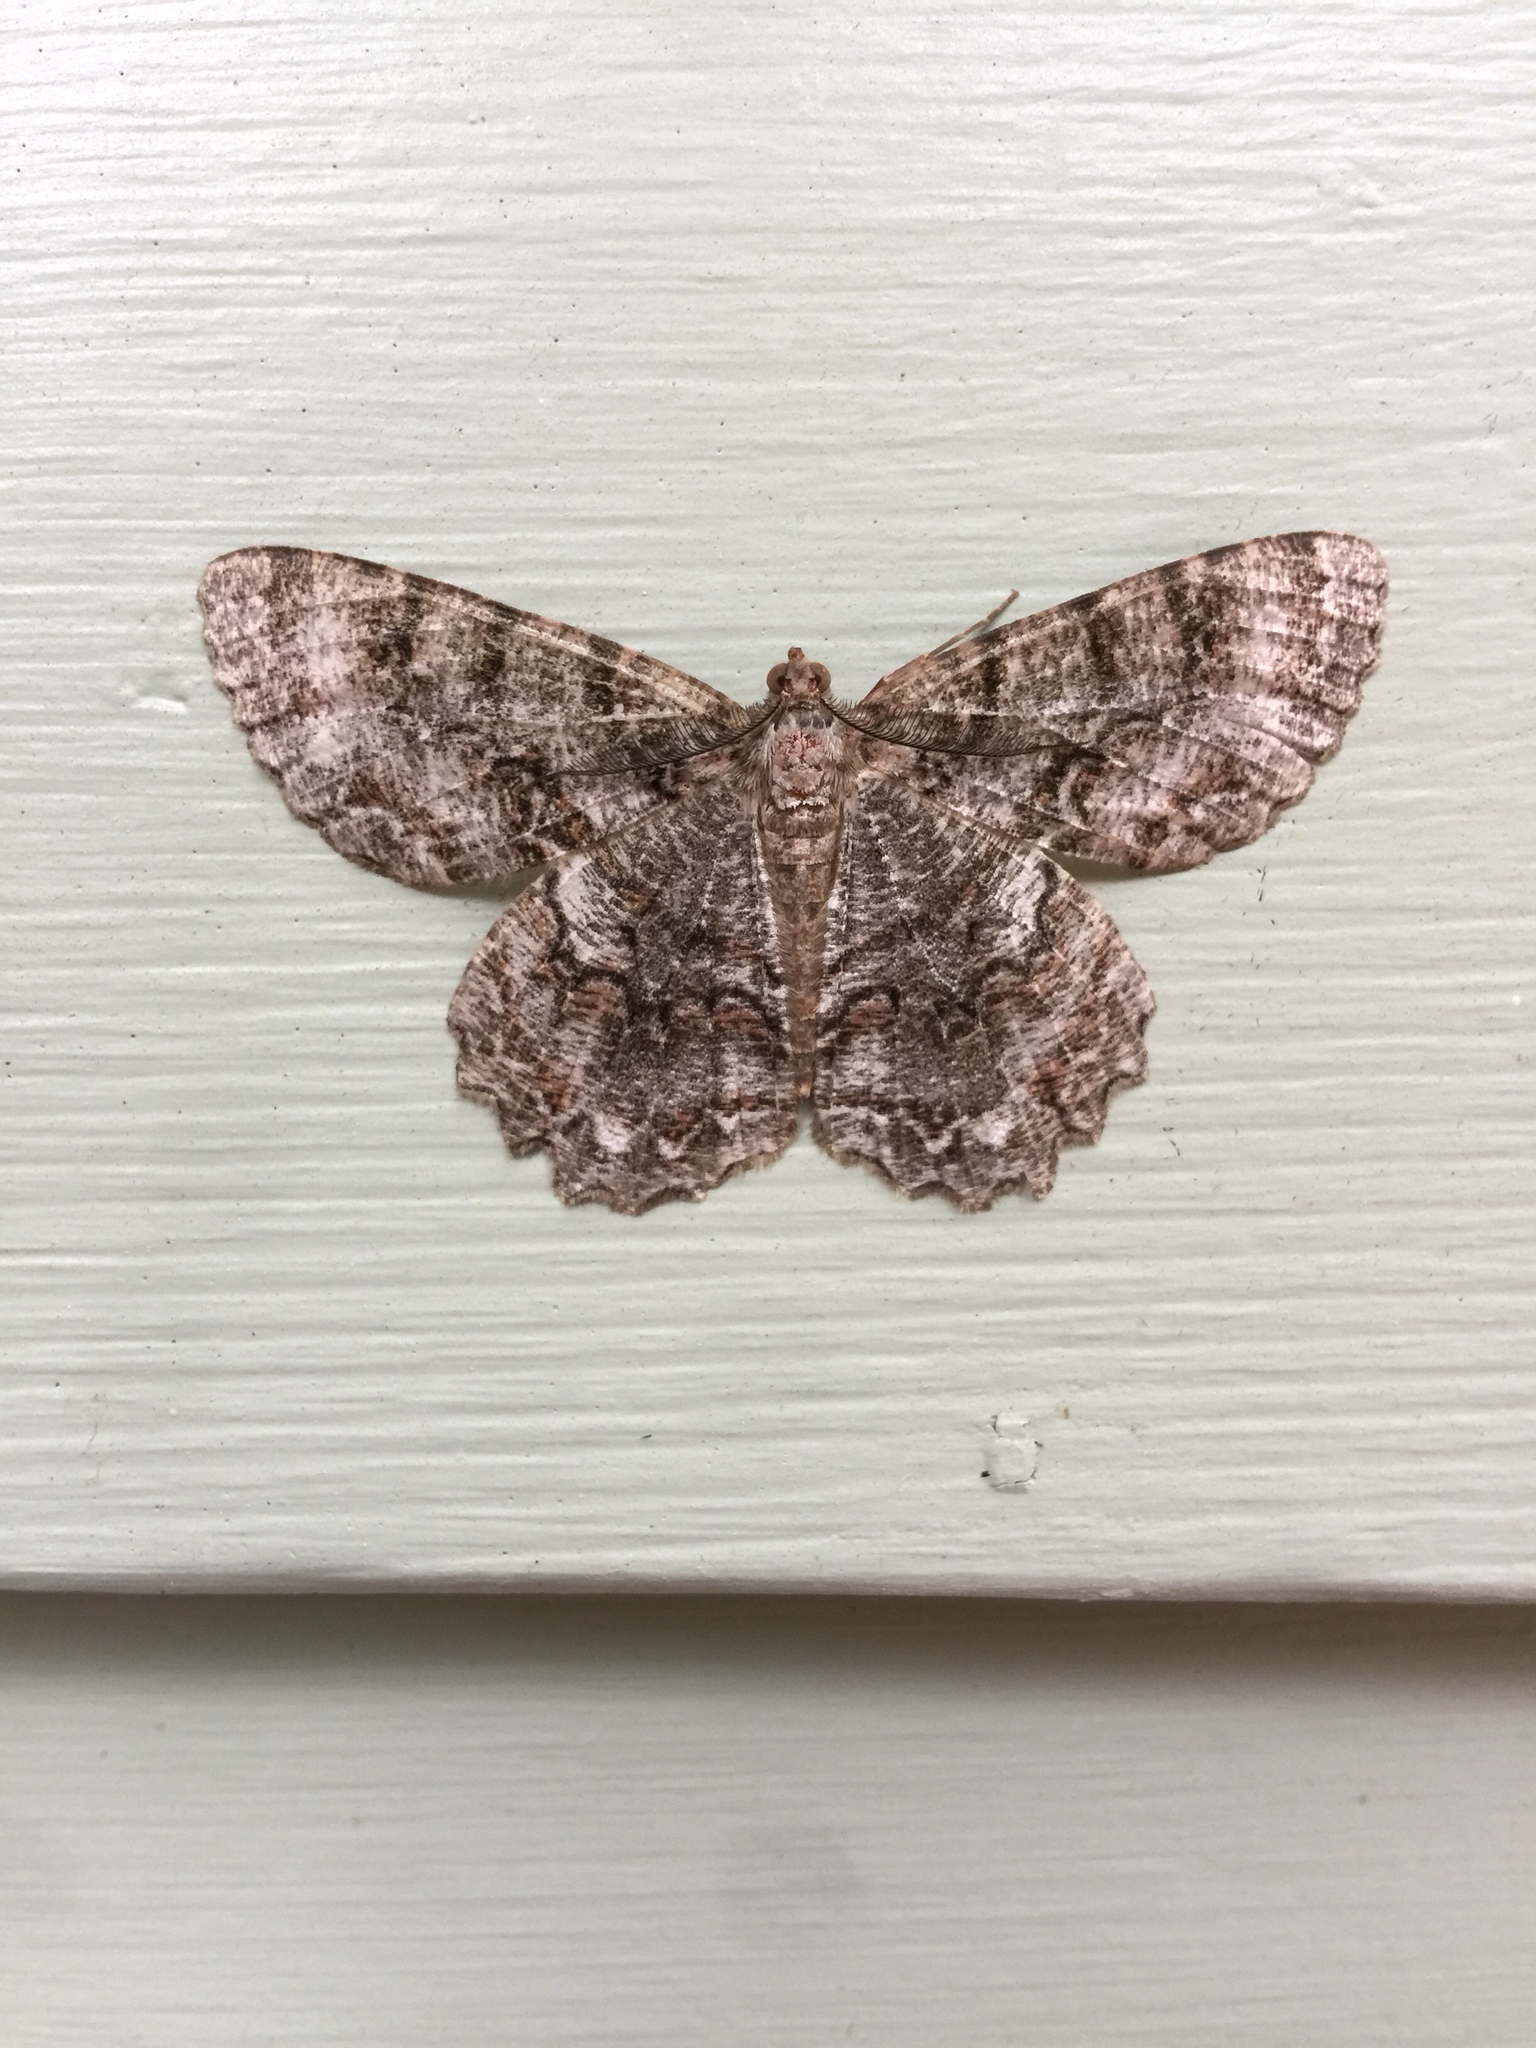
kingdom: Animalia
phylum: Arthropoda
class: Insecta
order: Lepidoptera
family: Geometridae
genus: Epimecis
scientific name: Epimecis hortaria
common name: Tulip-tree beauty
